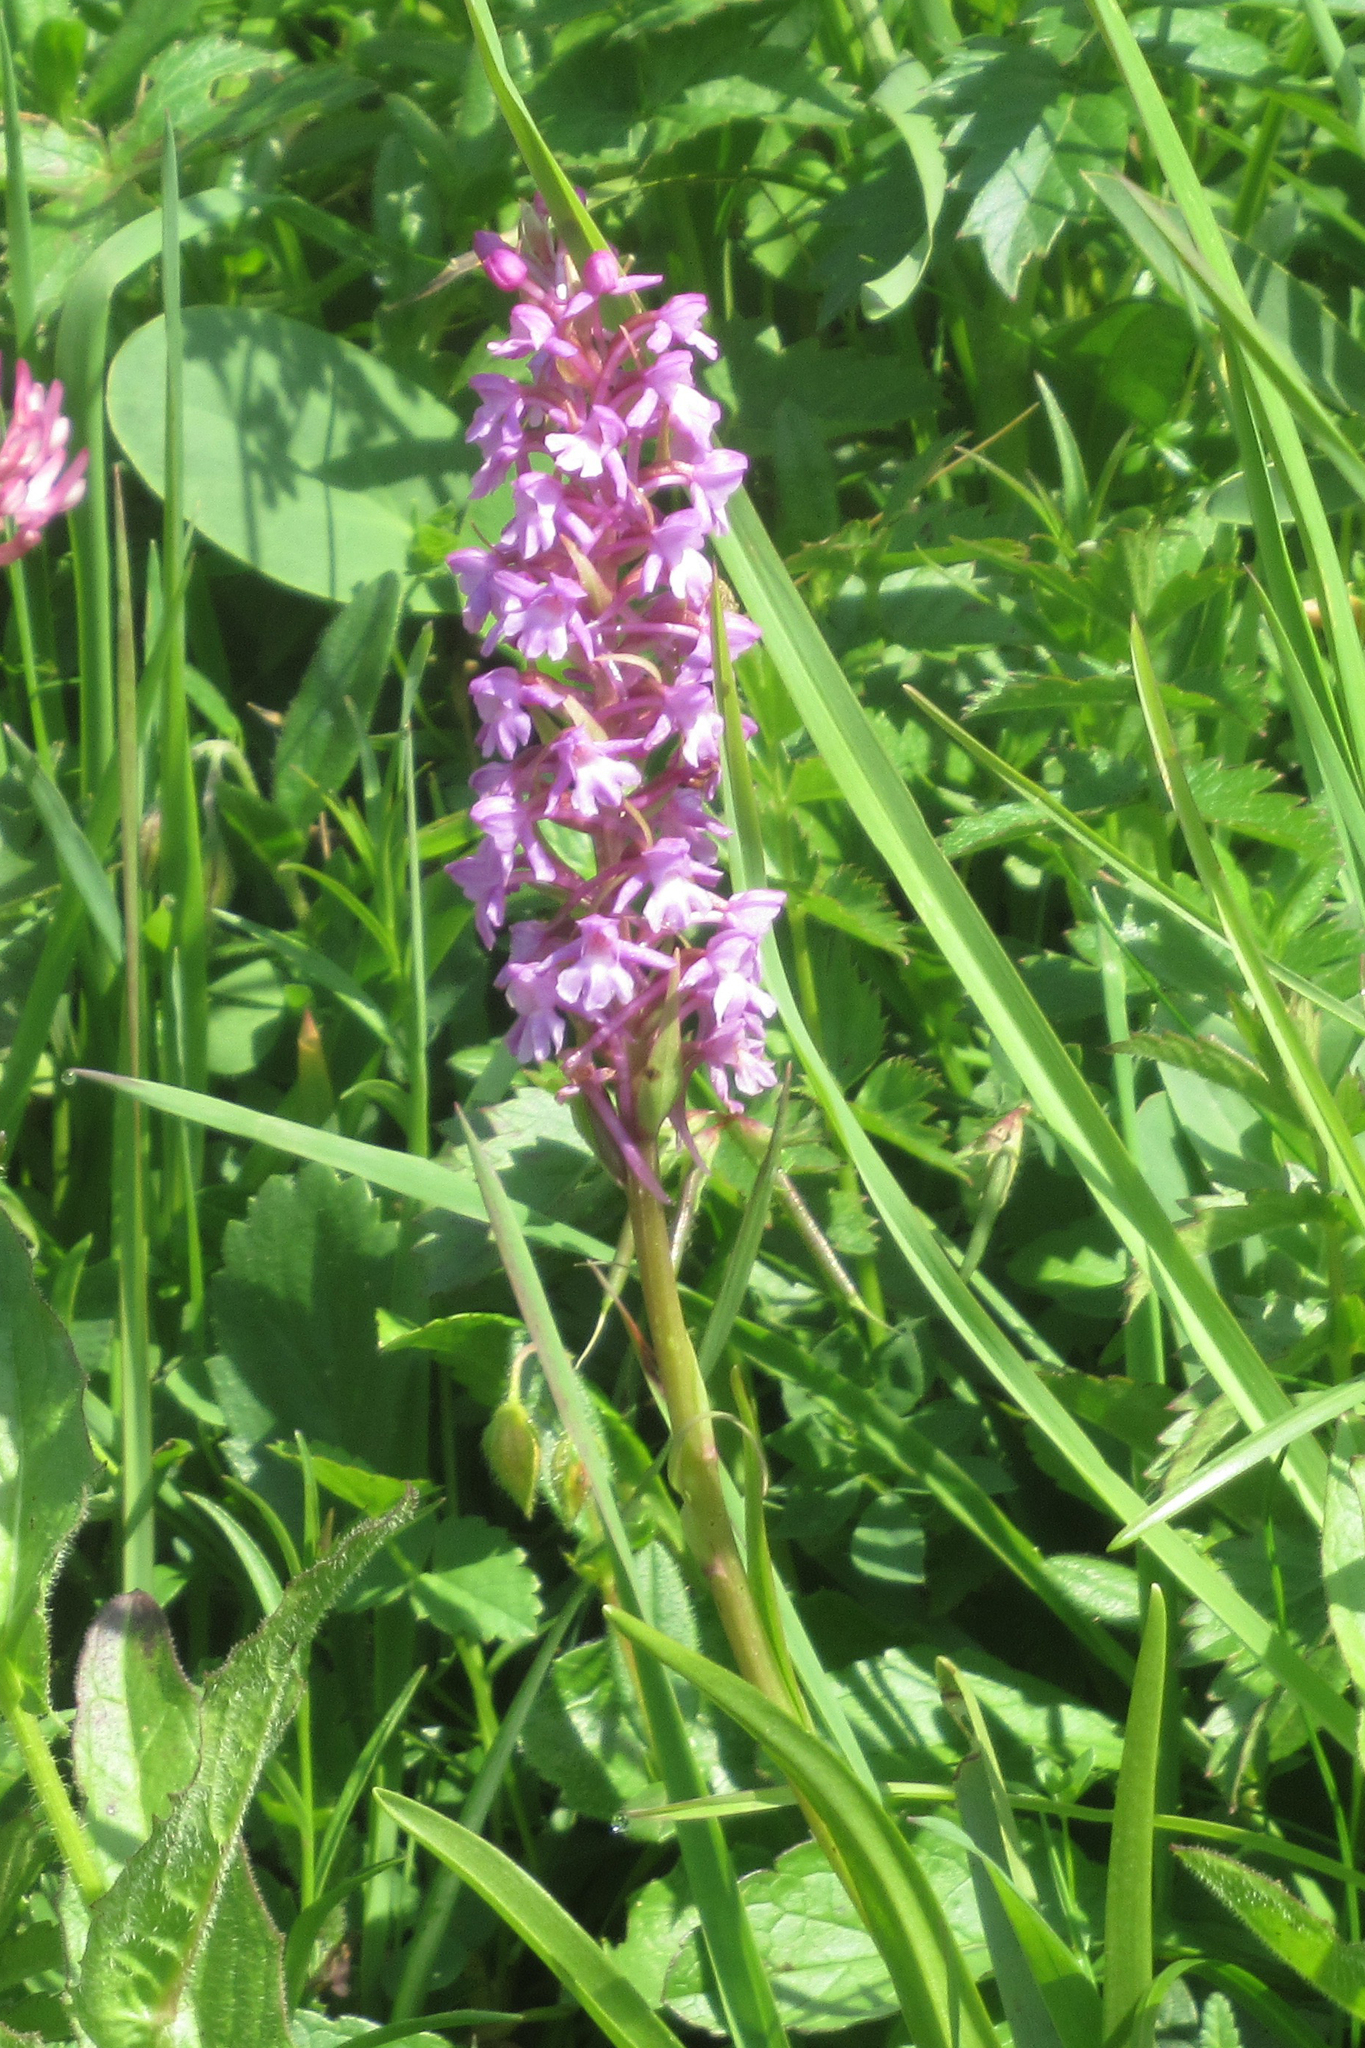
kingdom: Plantae
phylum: Tracheophyta
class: Liliopsida
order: Asparagales
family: Orchidaceae
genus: Gymnadenia
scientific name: Gymnadenia conopsea
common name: Fragrant orchid
